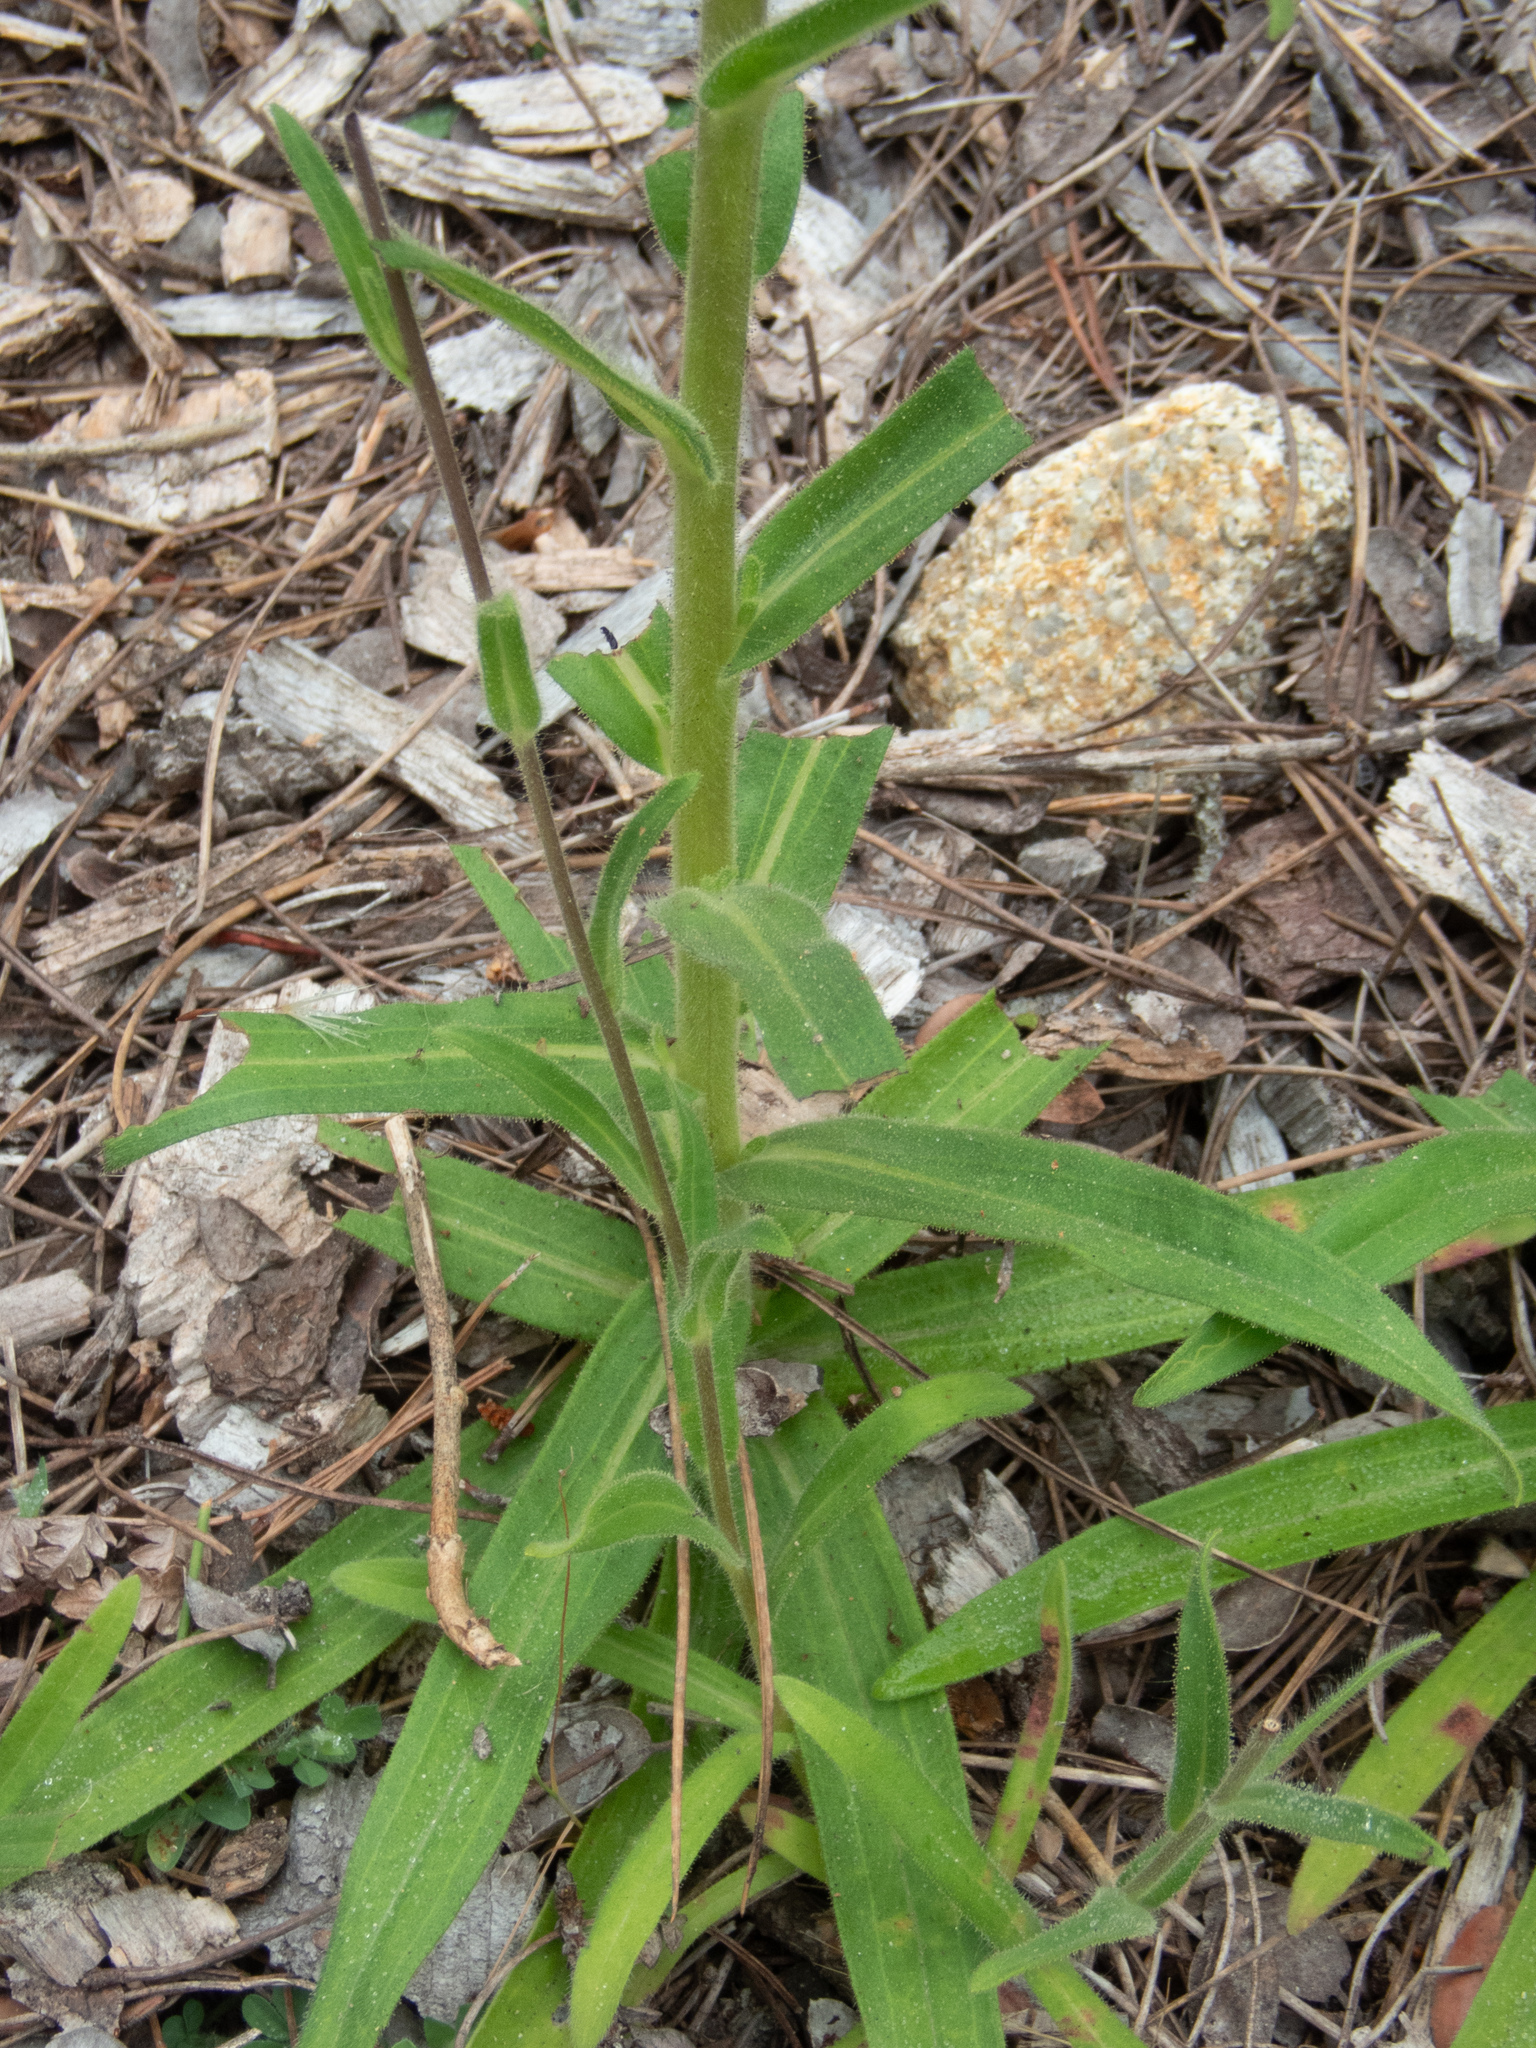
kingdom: Plantae
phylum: Tracheophyta
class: Magnoliopsida
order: Asterales
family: Asteraceae
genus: Madia
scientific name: Madia sativa
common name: Coast tarweed
